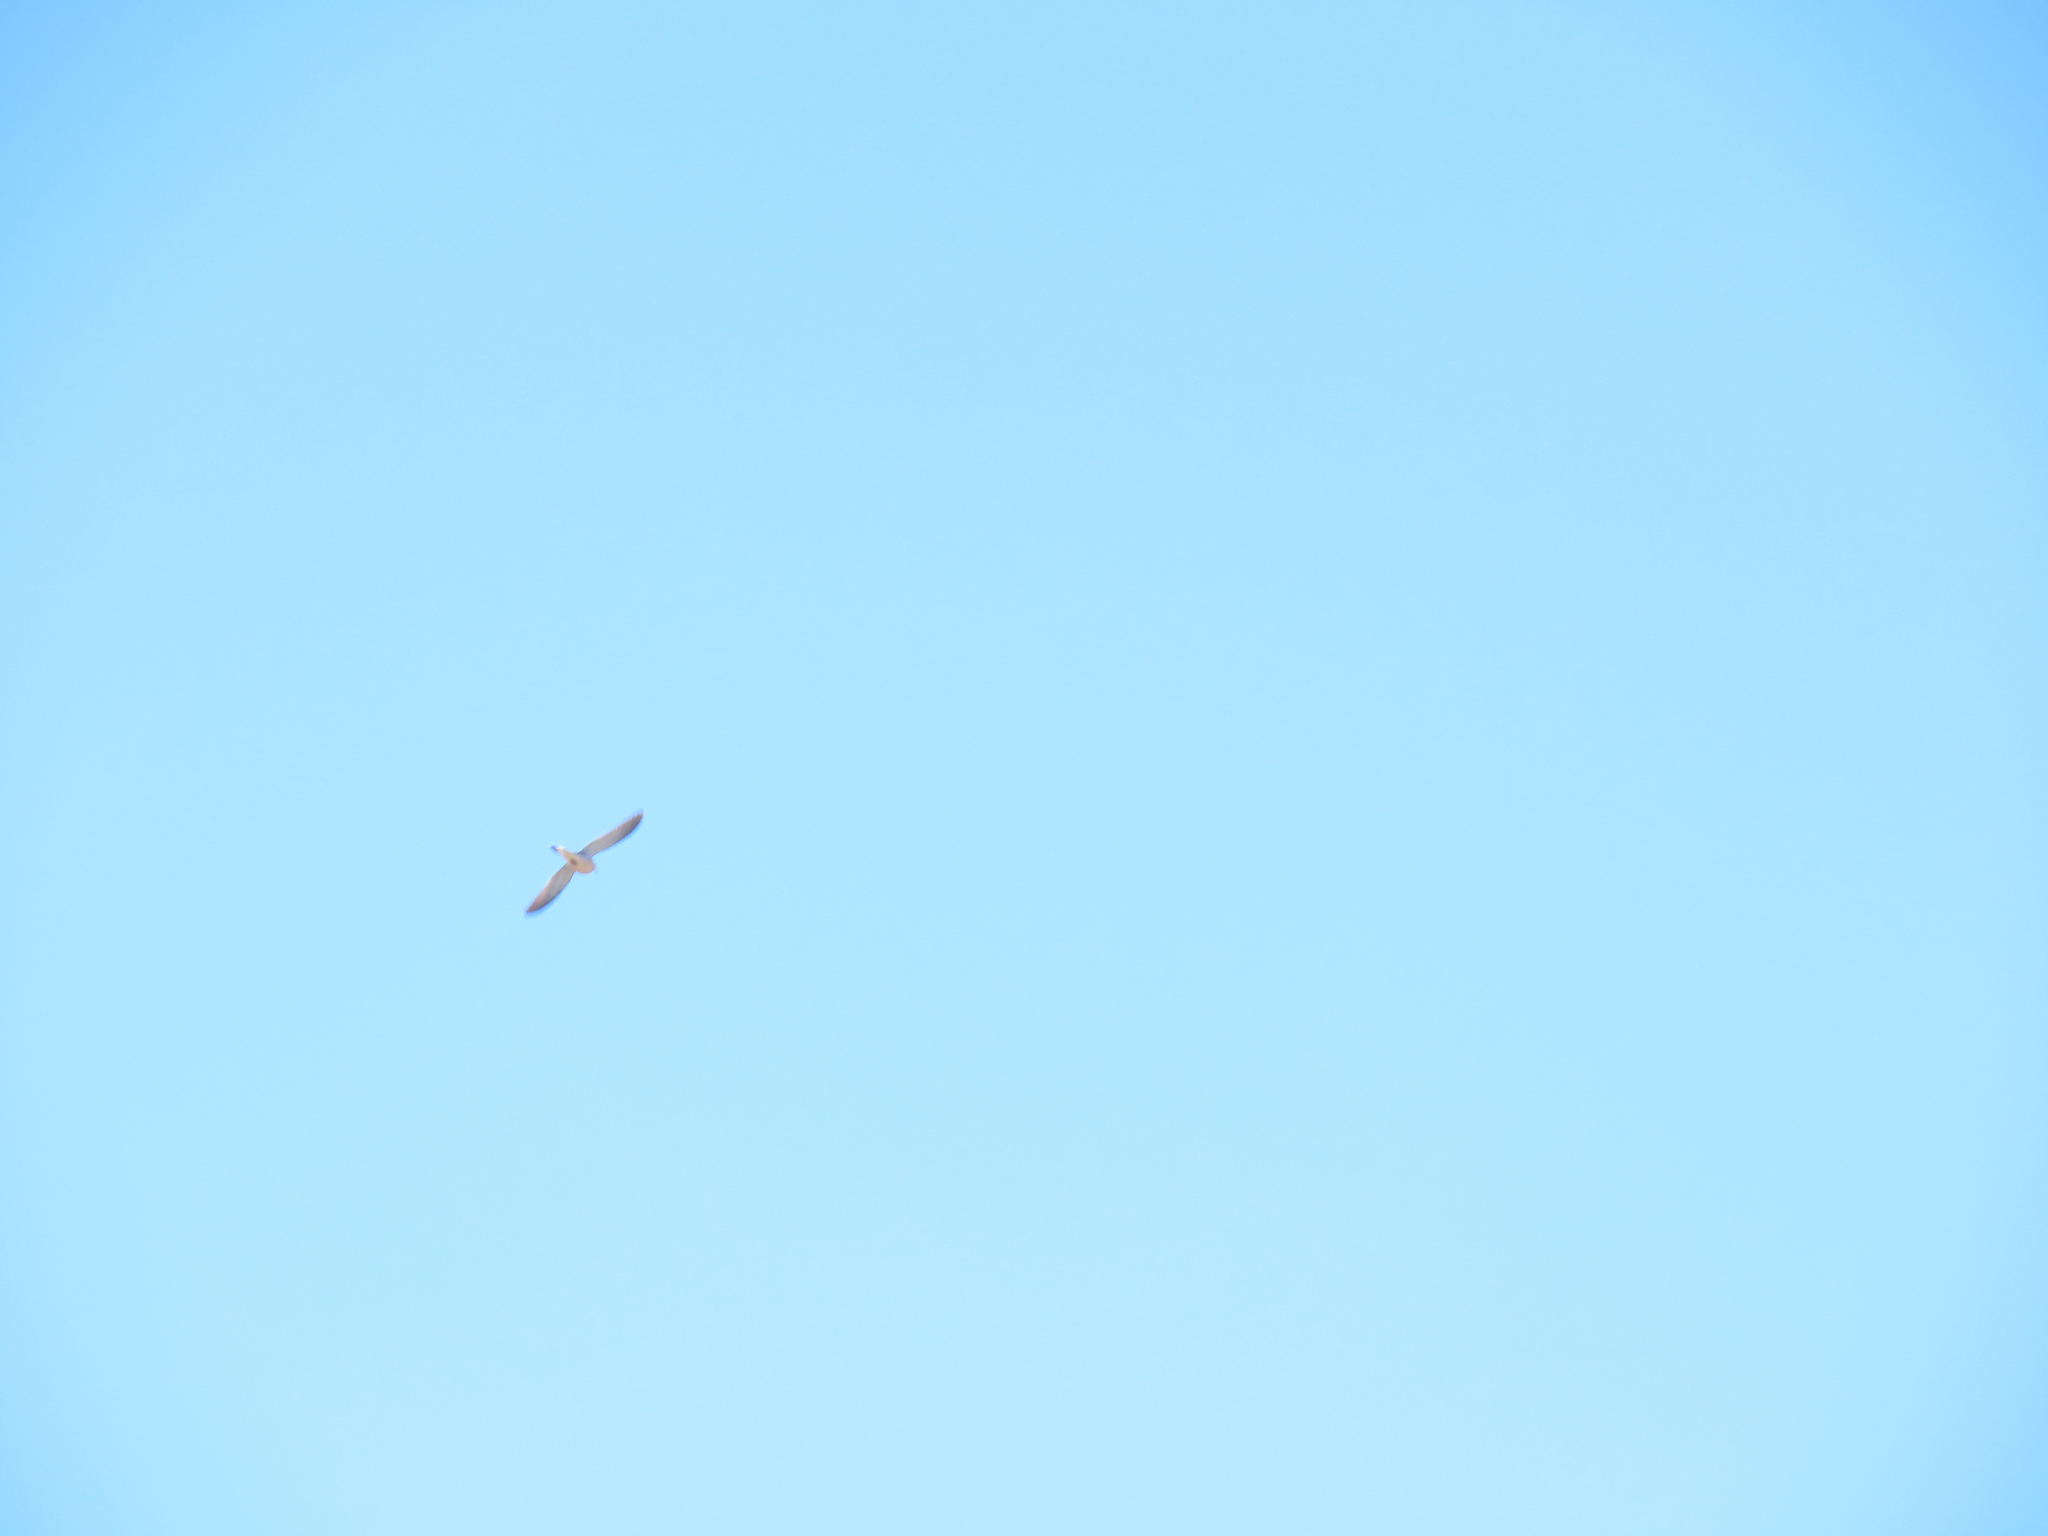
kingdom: Animalia
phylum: Chordata
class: Aves
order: Passeriformes
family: Alaudidae
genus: Eremophila
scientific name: Eremophila alpestris
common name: Horned lark
